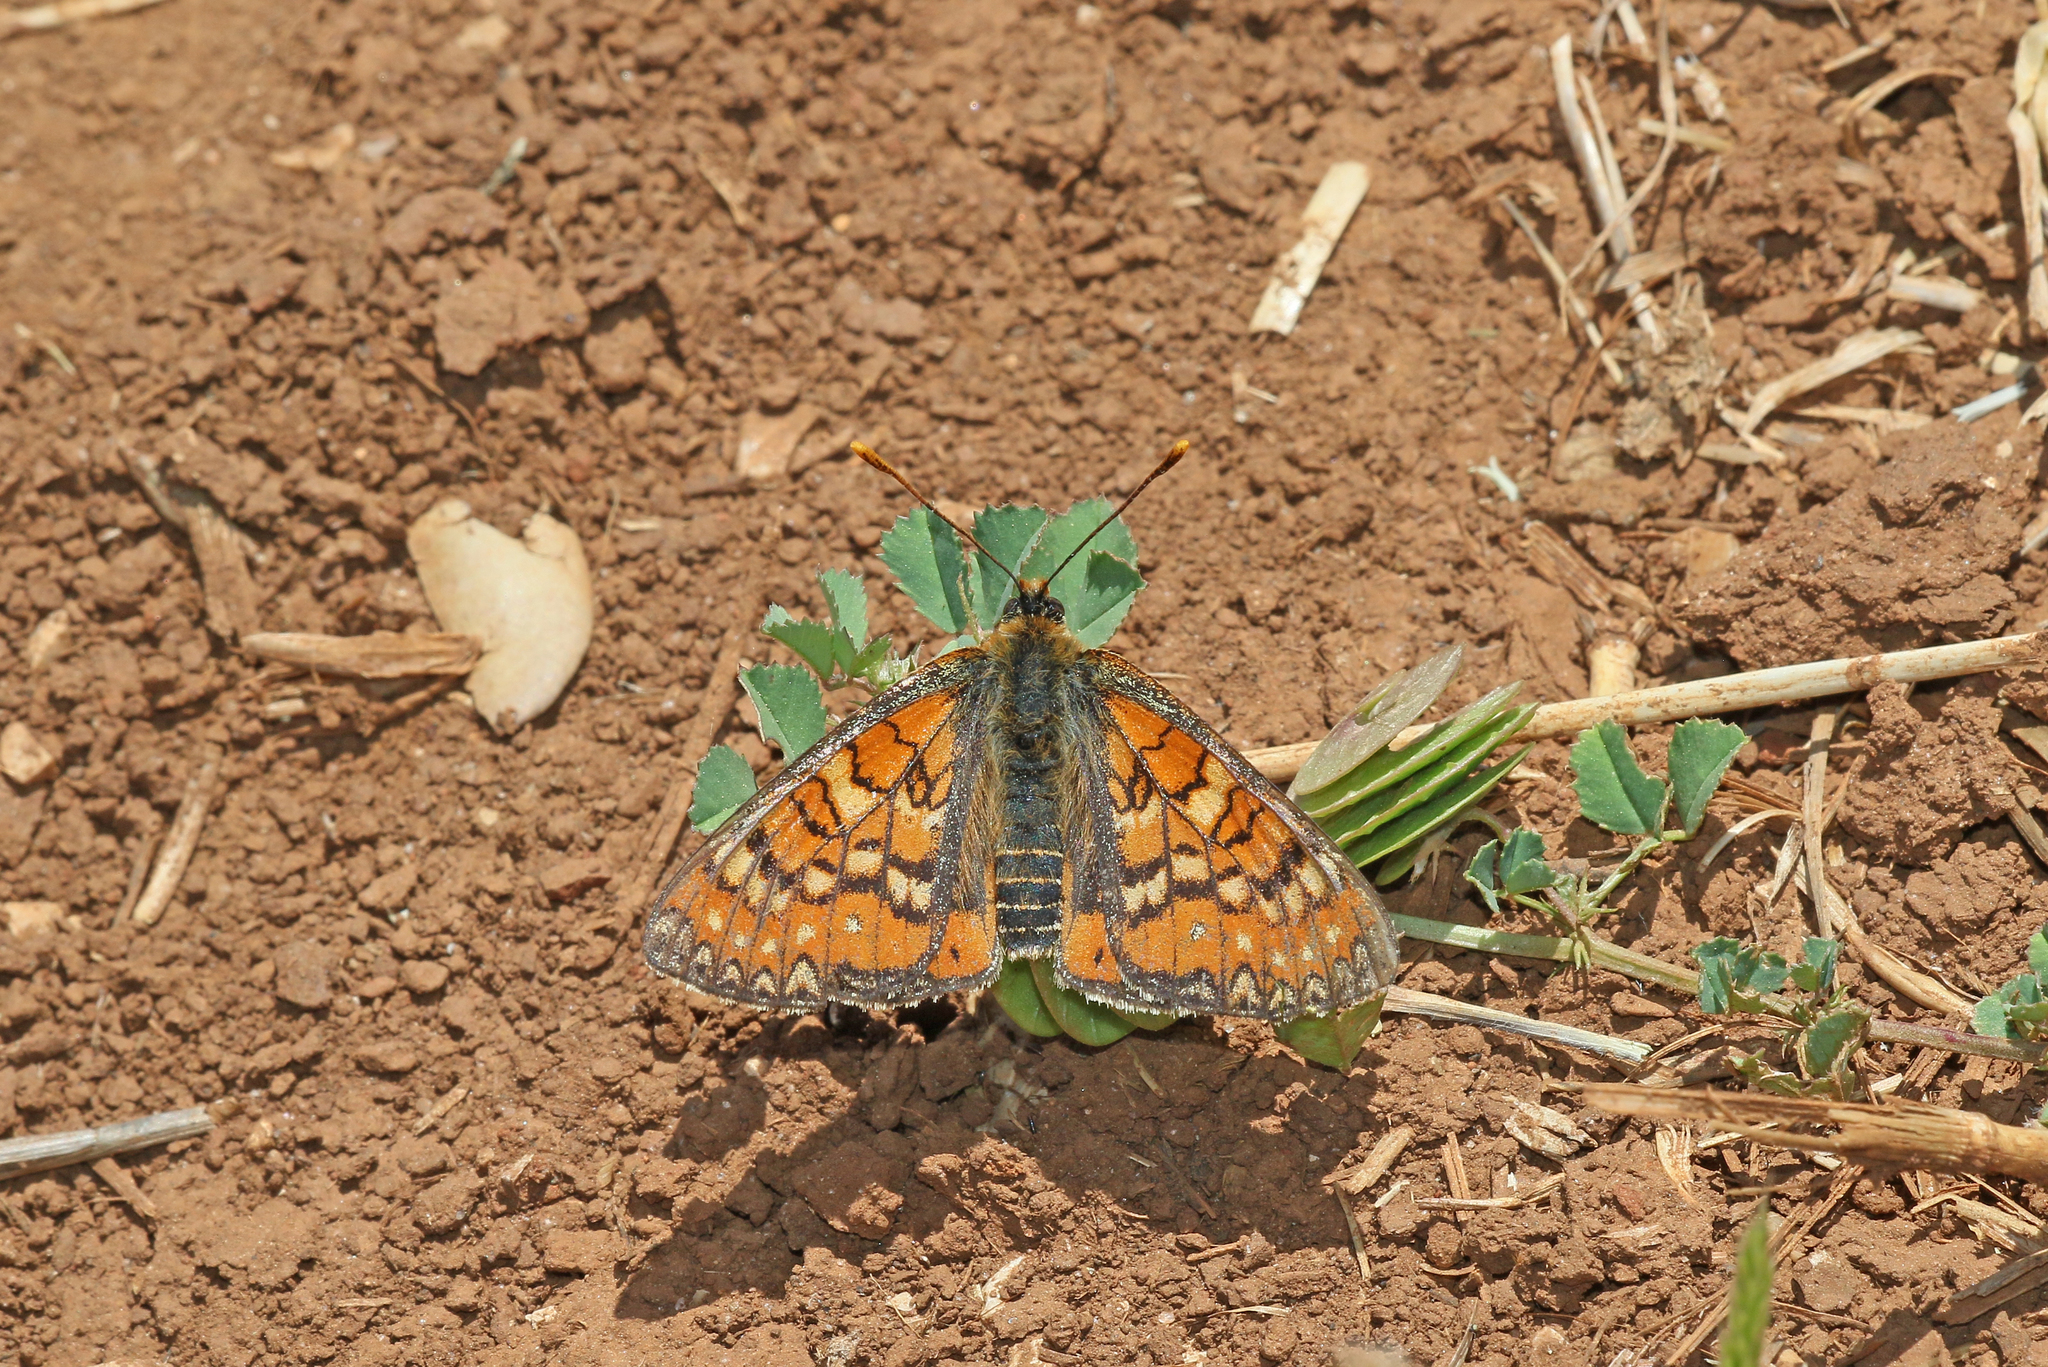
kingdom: Animalia
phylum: Arthropoda
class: Insecta
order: Lepidoptera
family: Nymphalidae
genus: Euphydryas
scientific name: Euphydryas desfontainii
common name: Spanish fritillary
